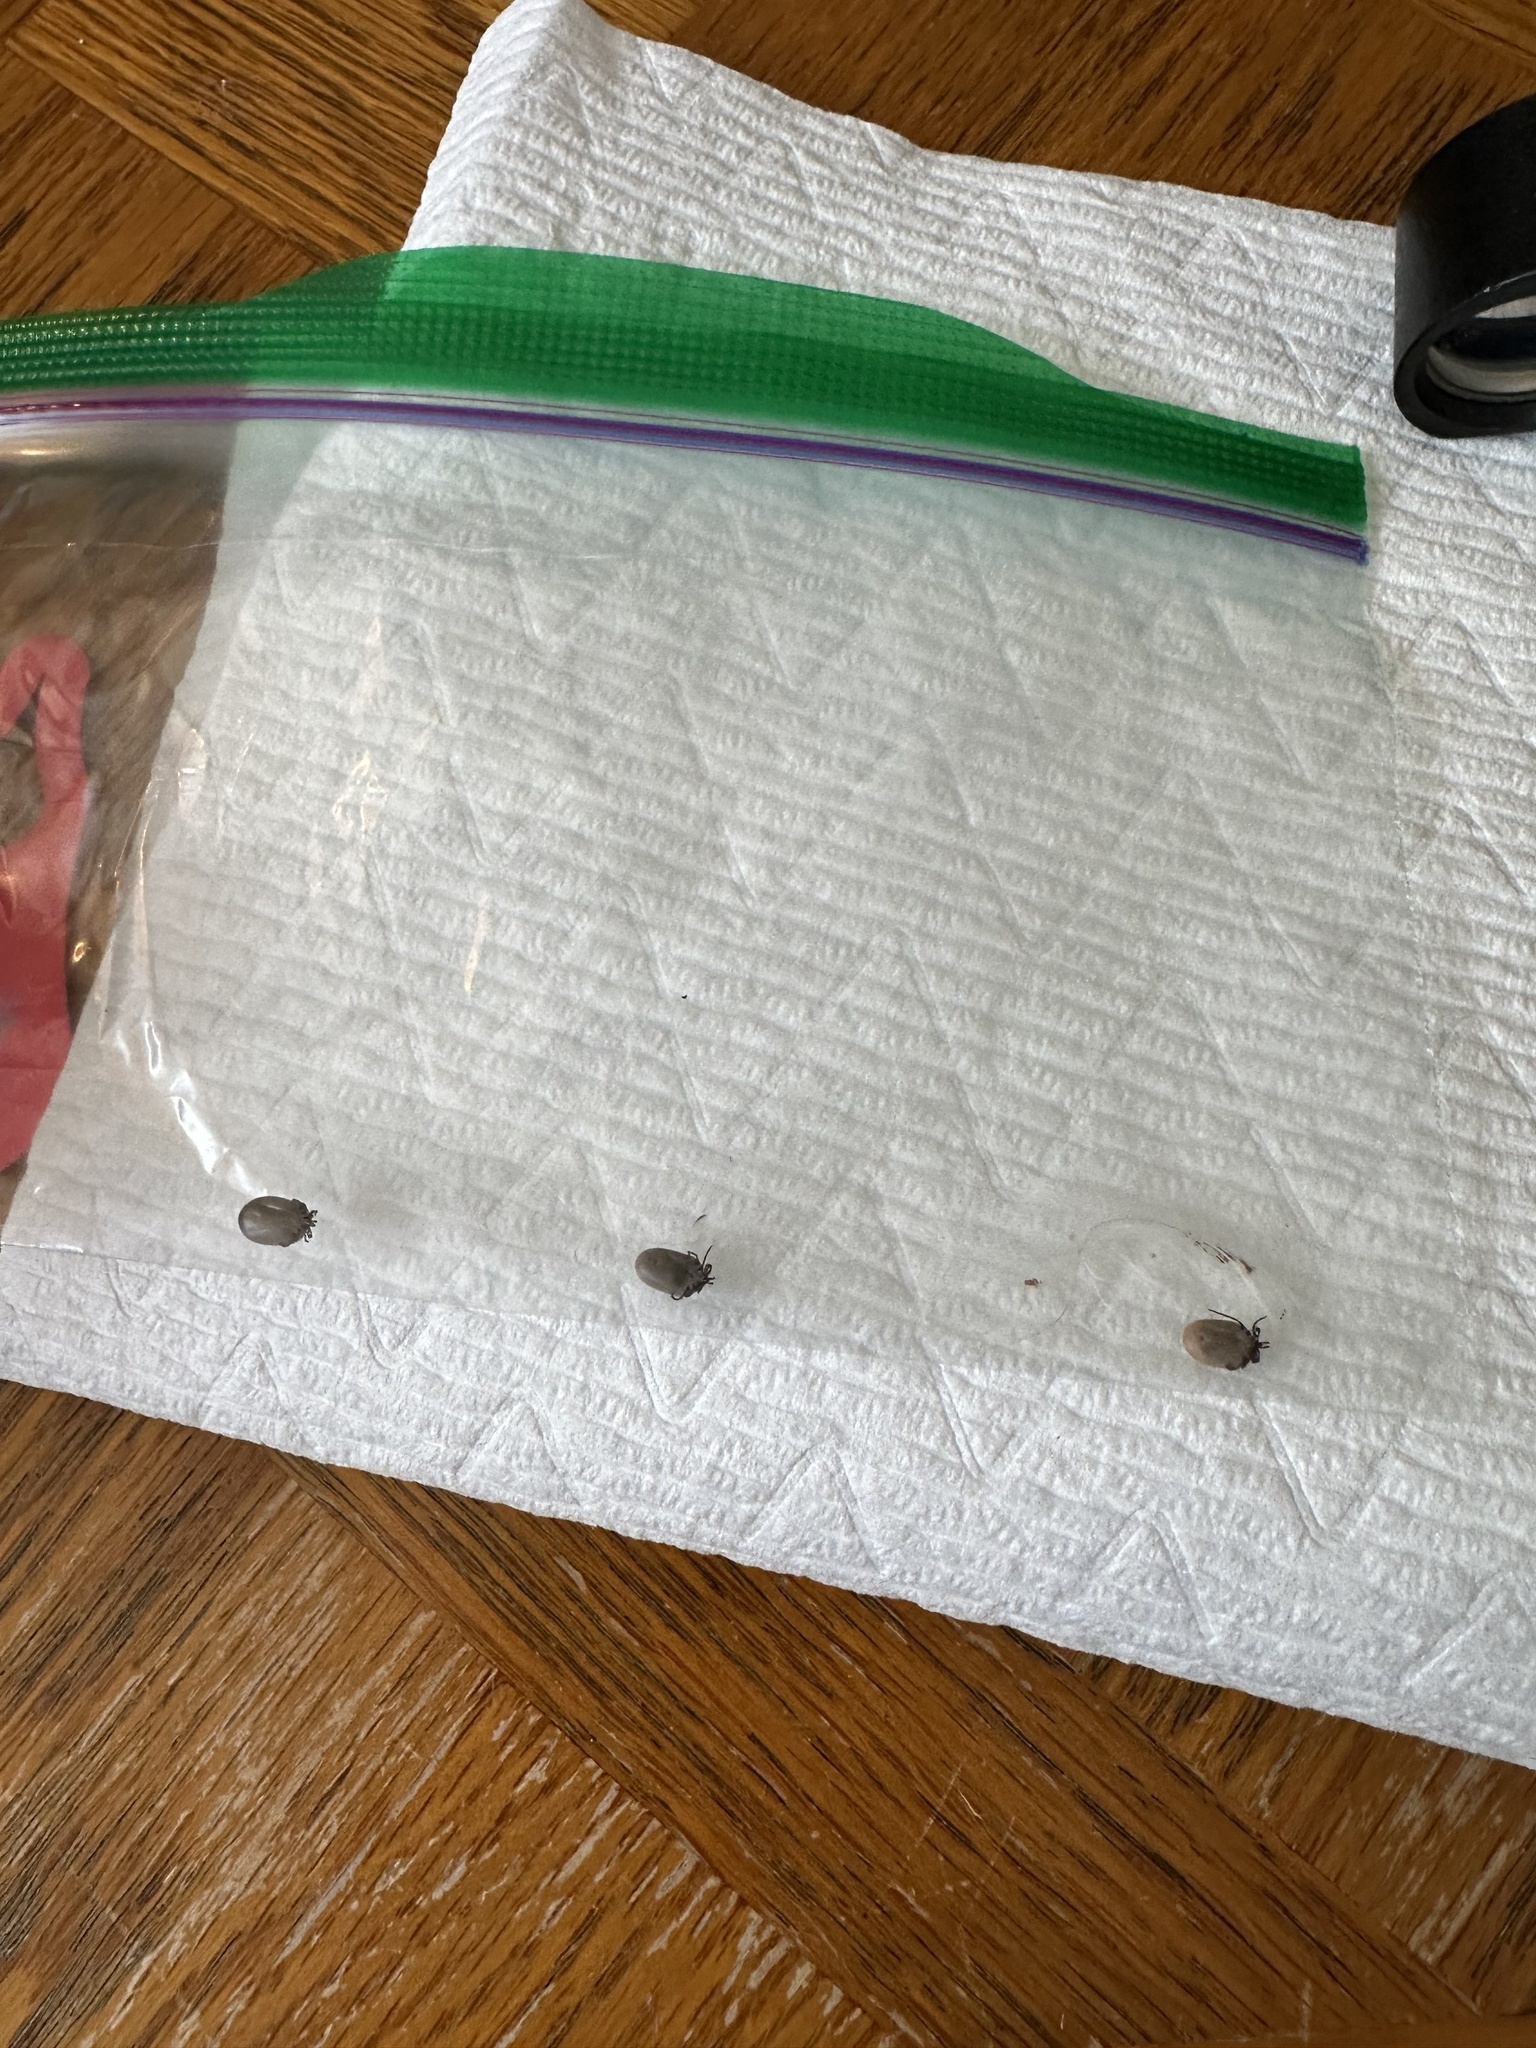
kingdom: Animalia
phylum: Arthropoda
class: Arachnida
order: Ixodida
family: Ixodidae
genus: Ixodes
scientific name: Ixodes scapularis
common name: Black legged tick
